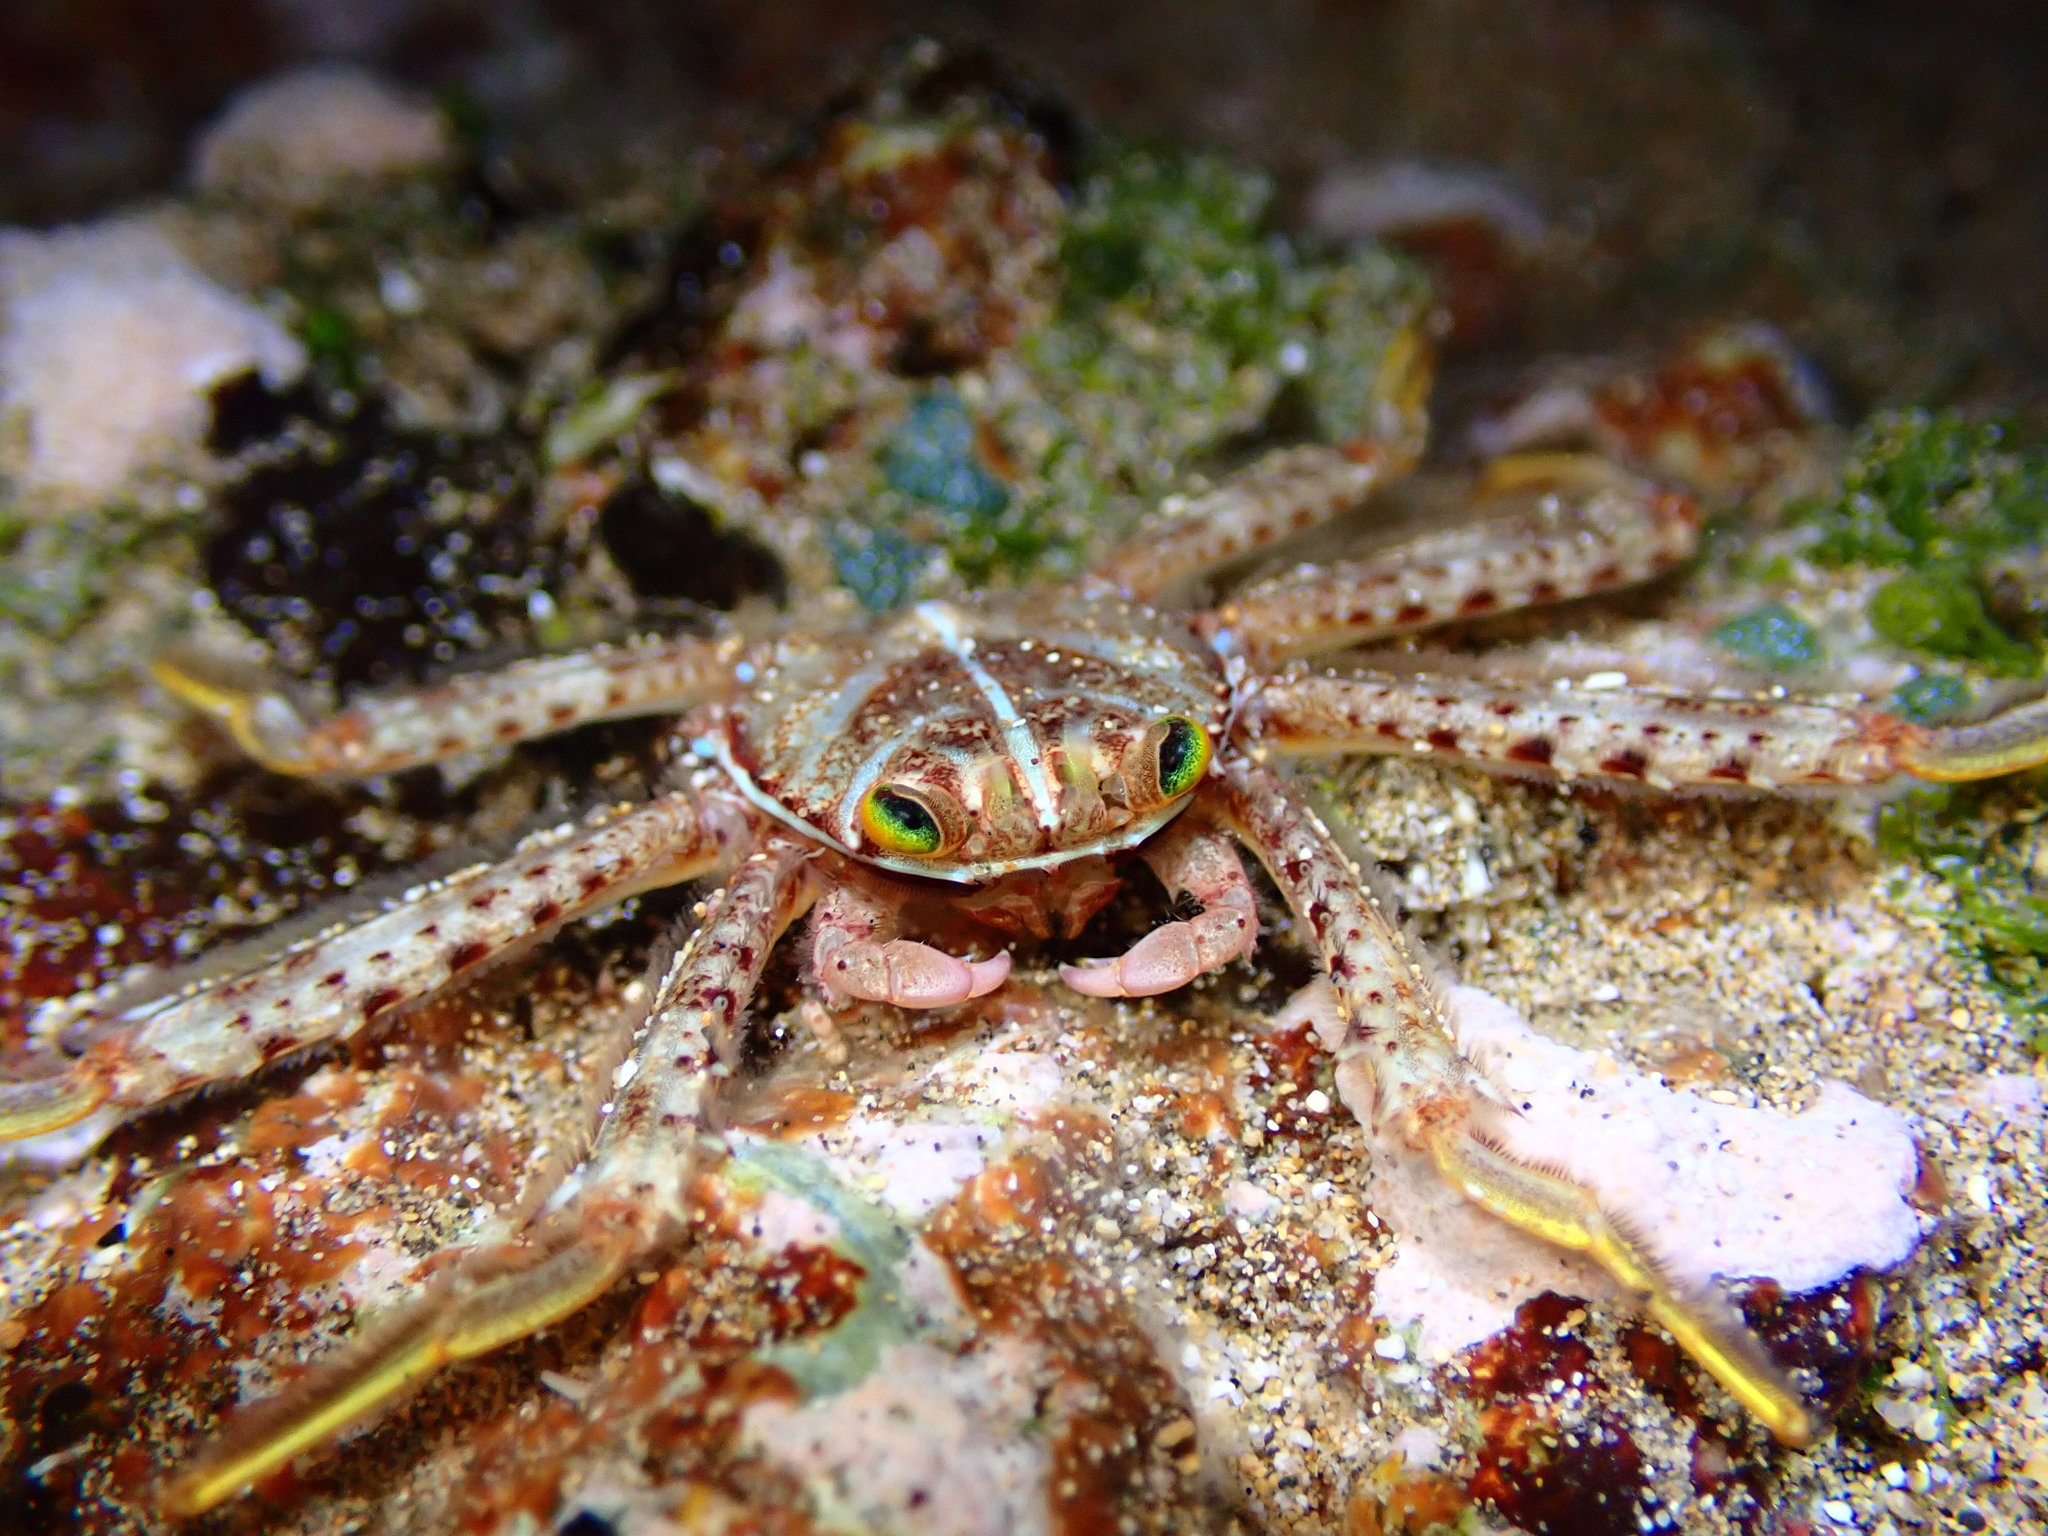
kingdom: Animalia
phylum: Arthropoda
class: Malacostraca
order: Decapoda
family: Percnidae
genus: Percnon
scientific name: Percnon planissimum
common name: Flat rock crab
